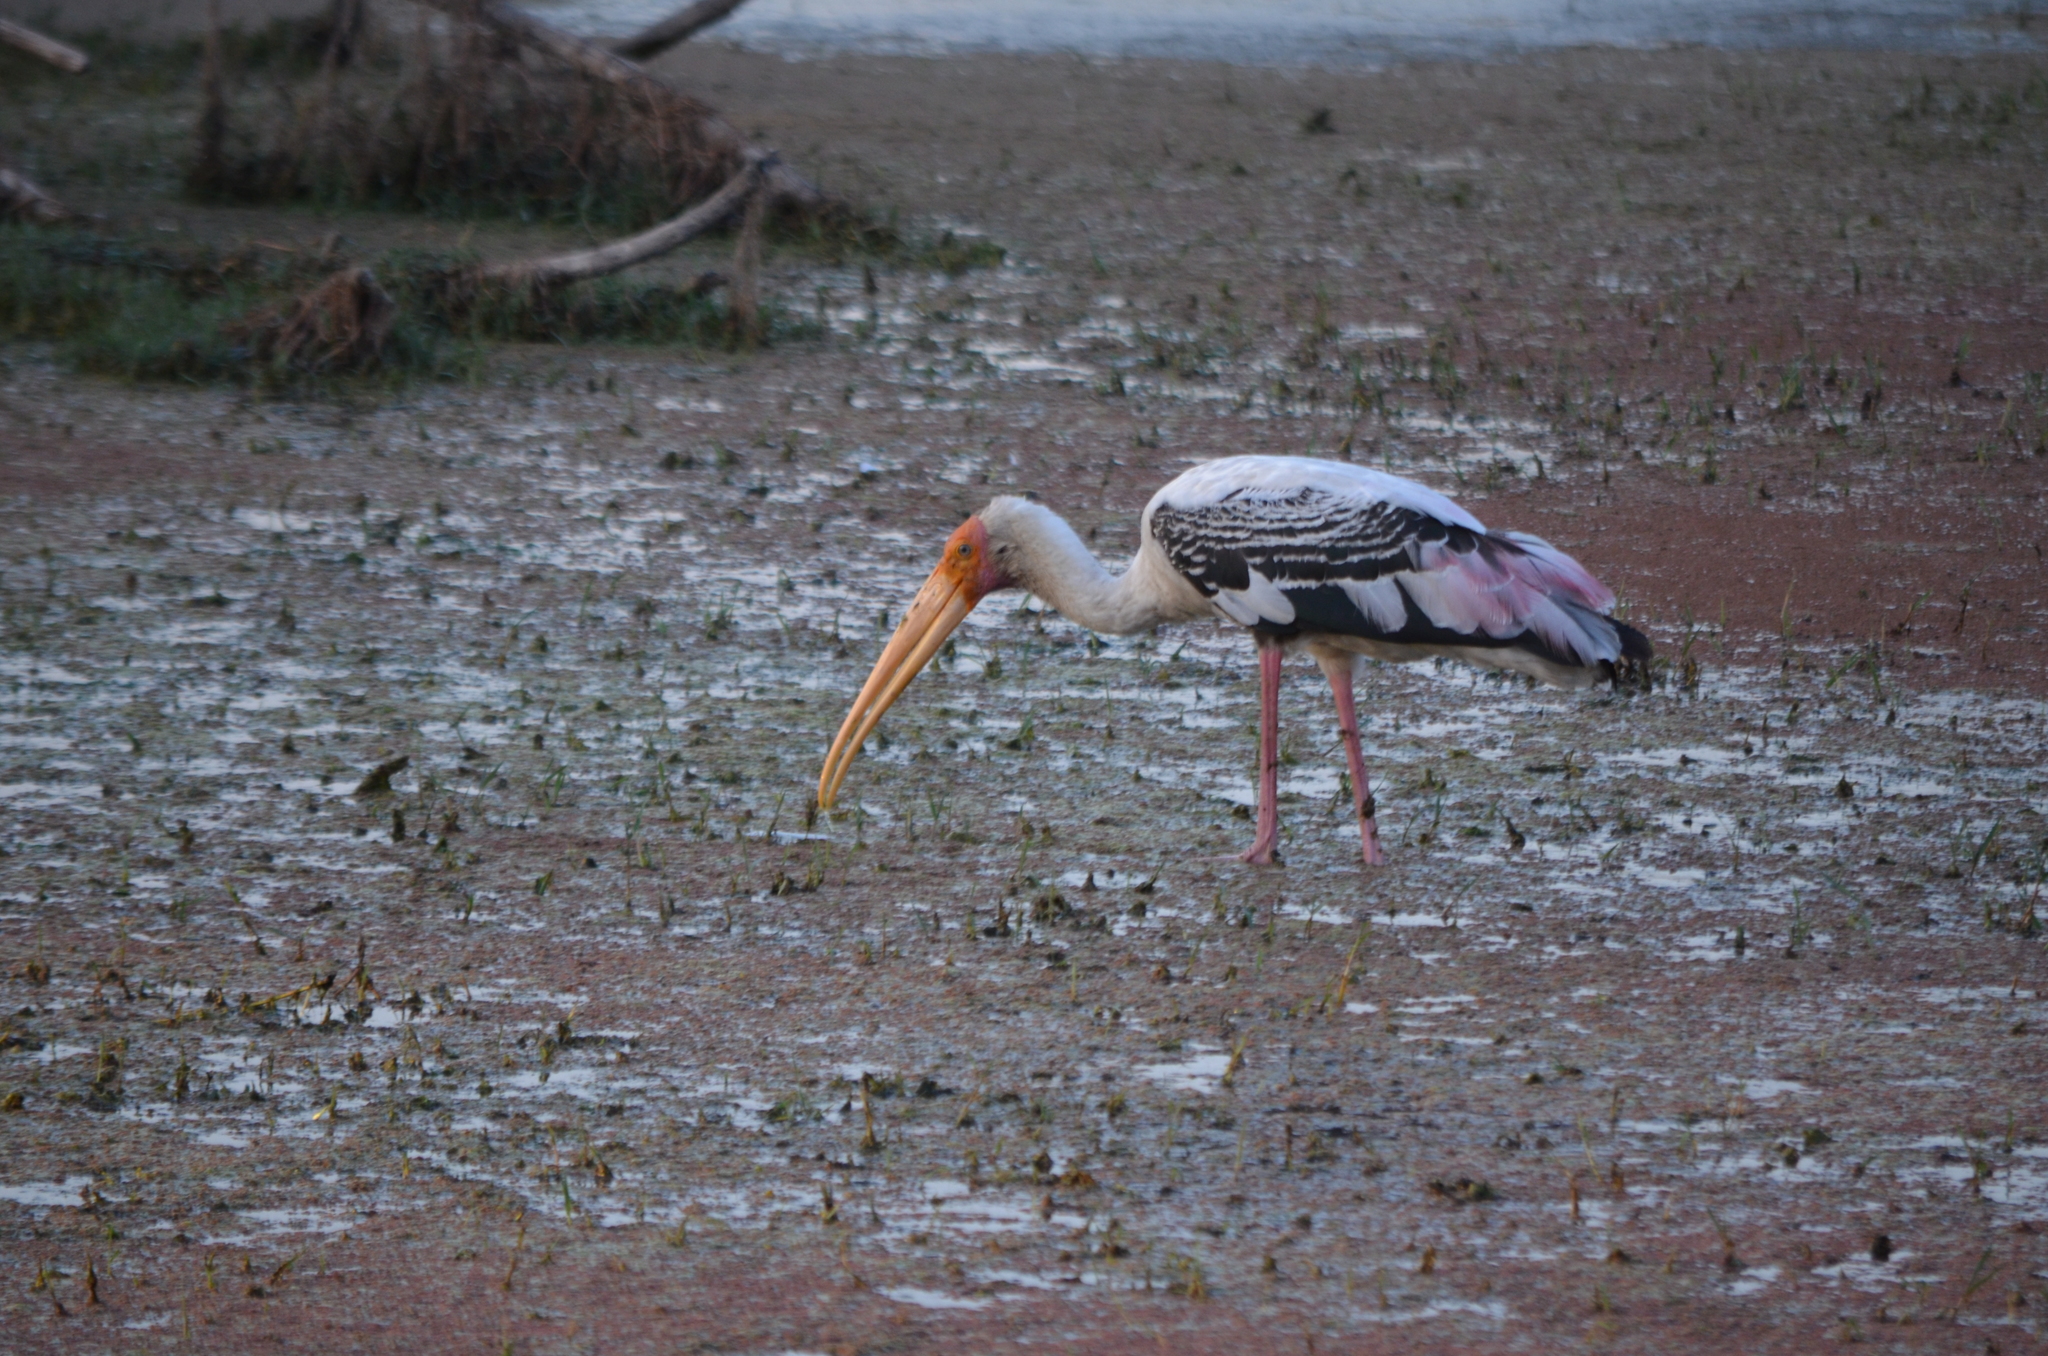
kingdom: Animalia
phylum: Chordata
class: Aves
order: Ciconiiformes
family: Ciconiidae
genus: Mycteria
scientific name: Mycteria leucocephala
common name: Painted stork
